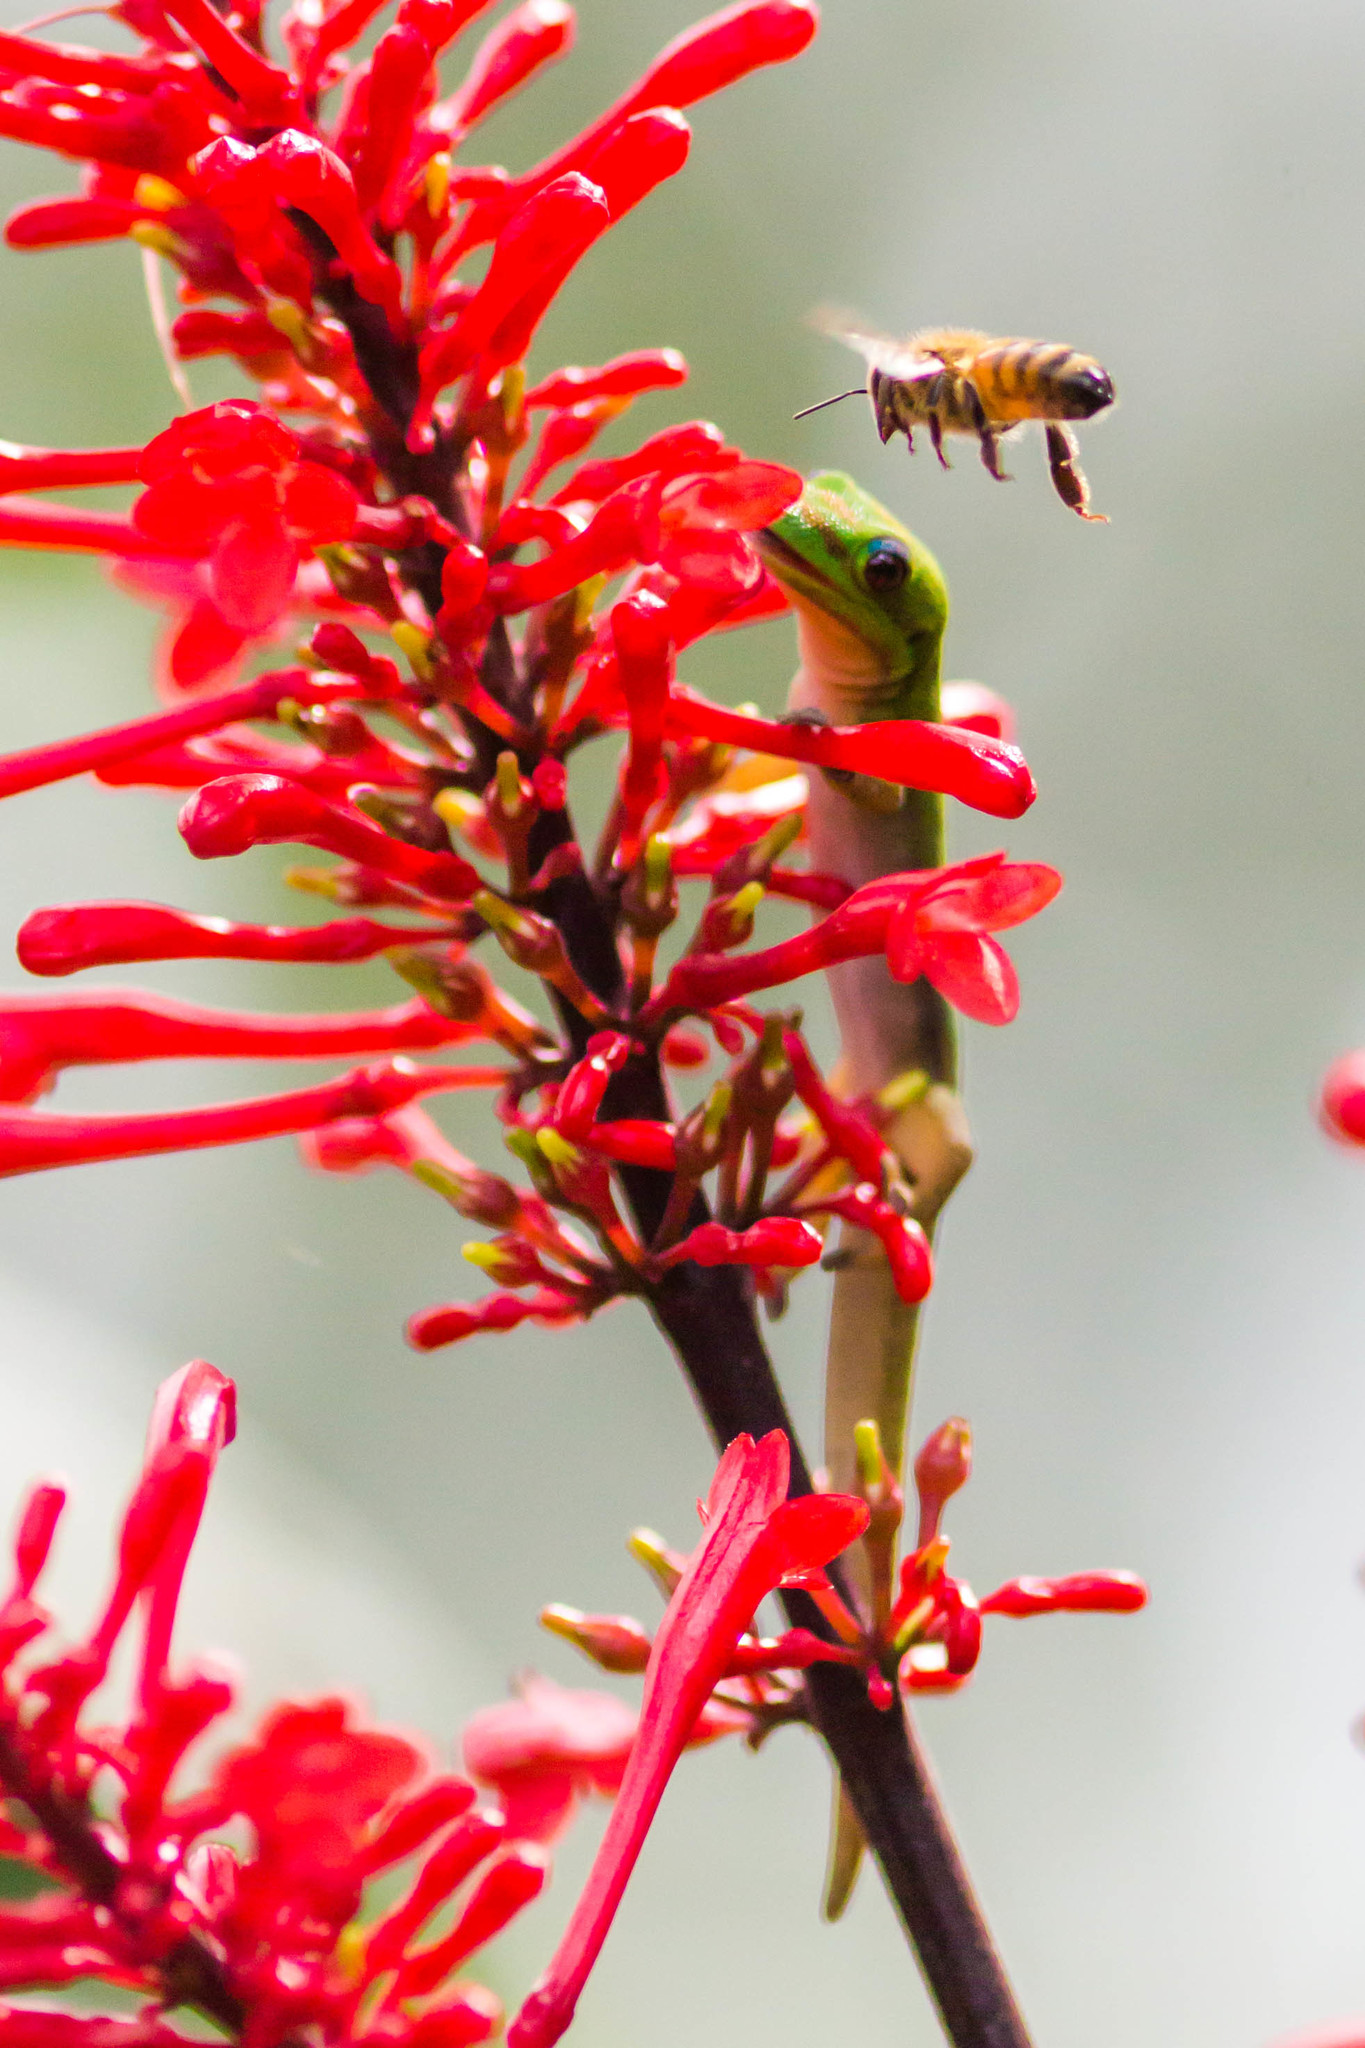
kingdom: Animalia
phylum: Chordata
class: Squamata
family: Dactyloidae
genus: Anolis
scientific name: Anolis carolinensis
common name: Green anole
